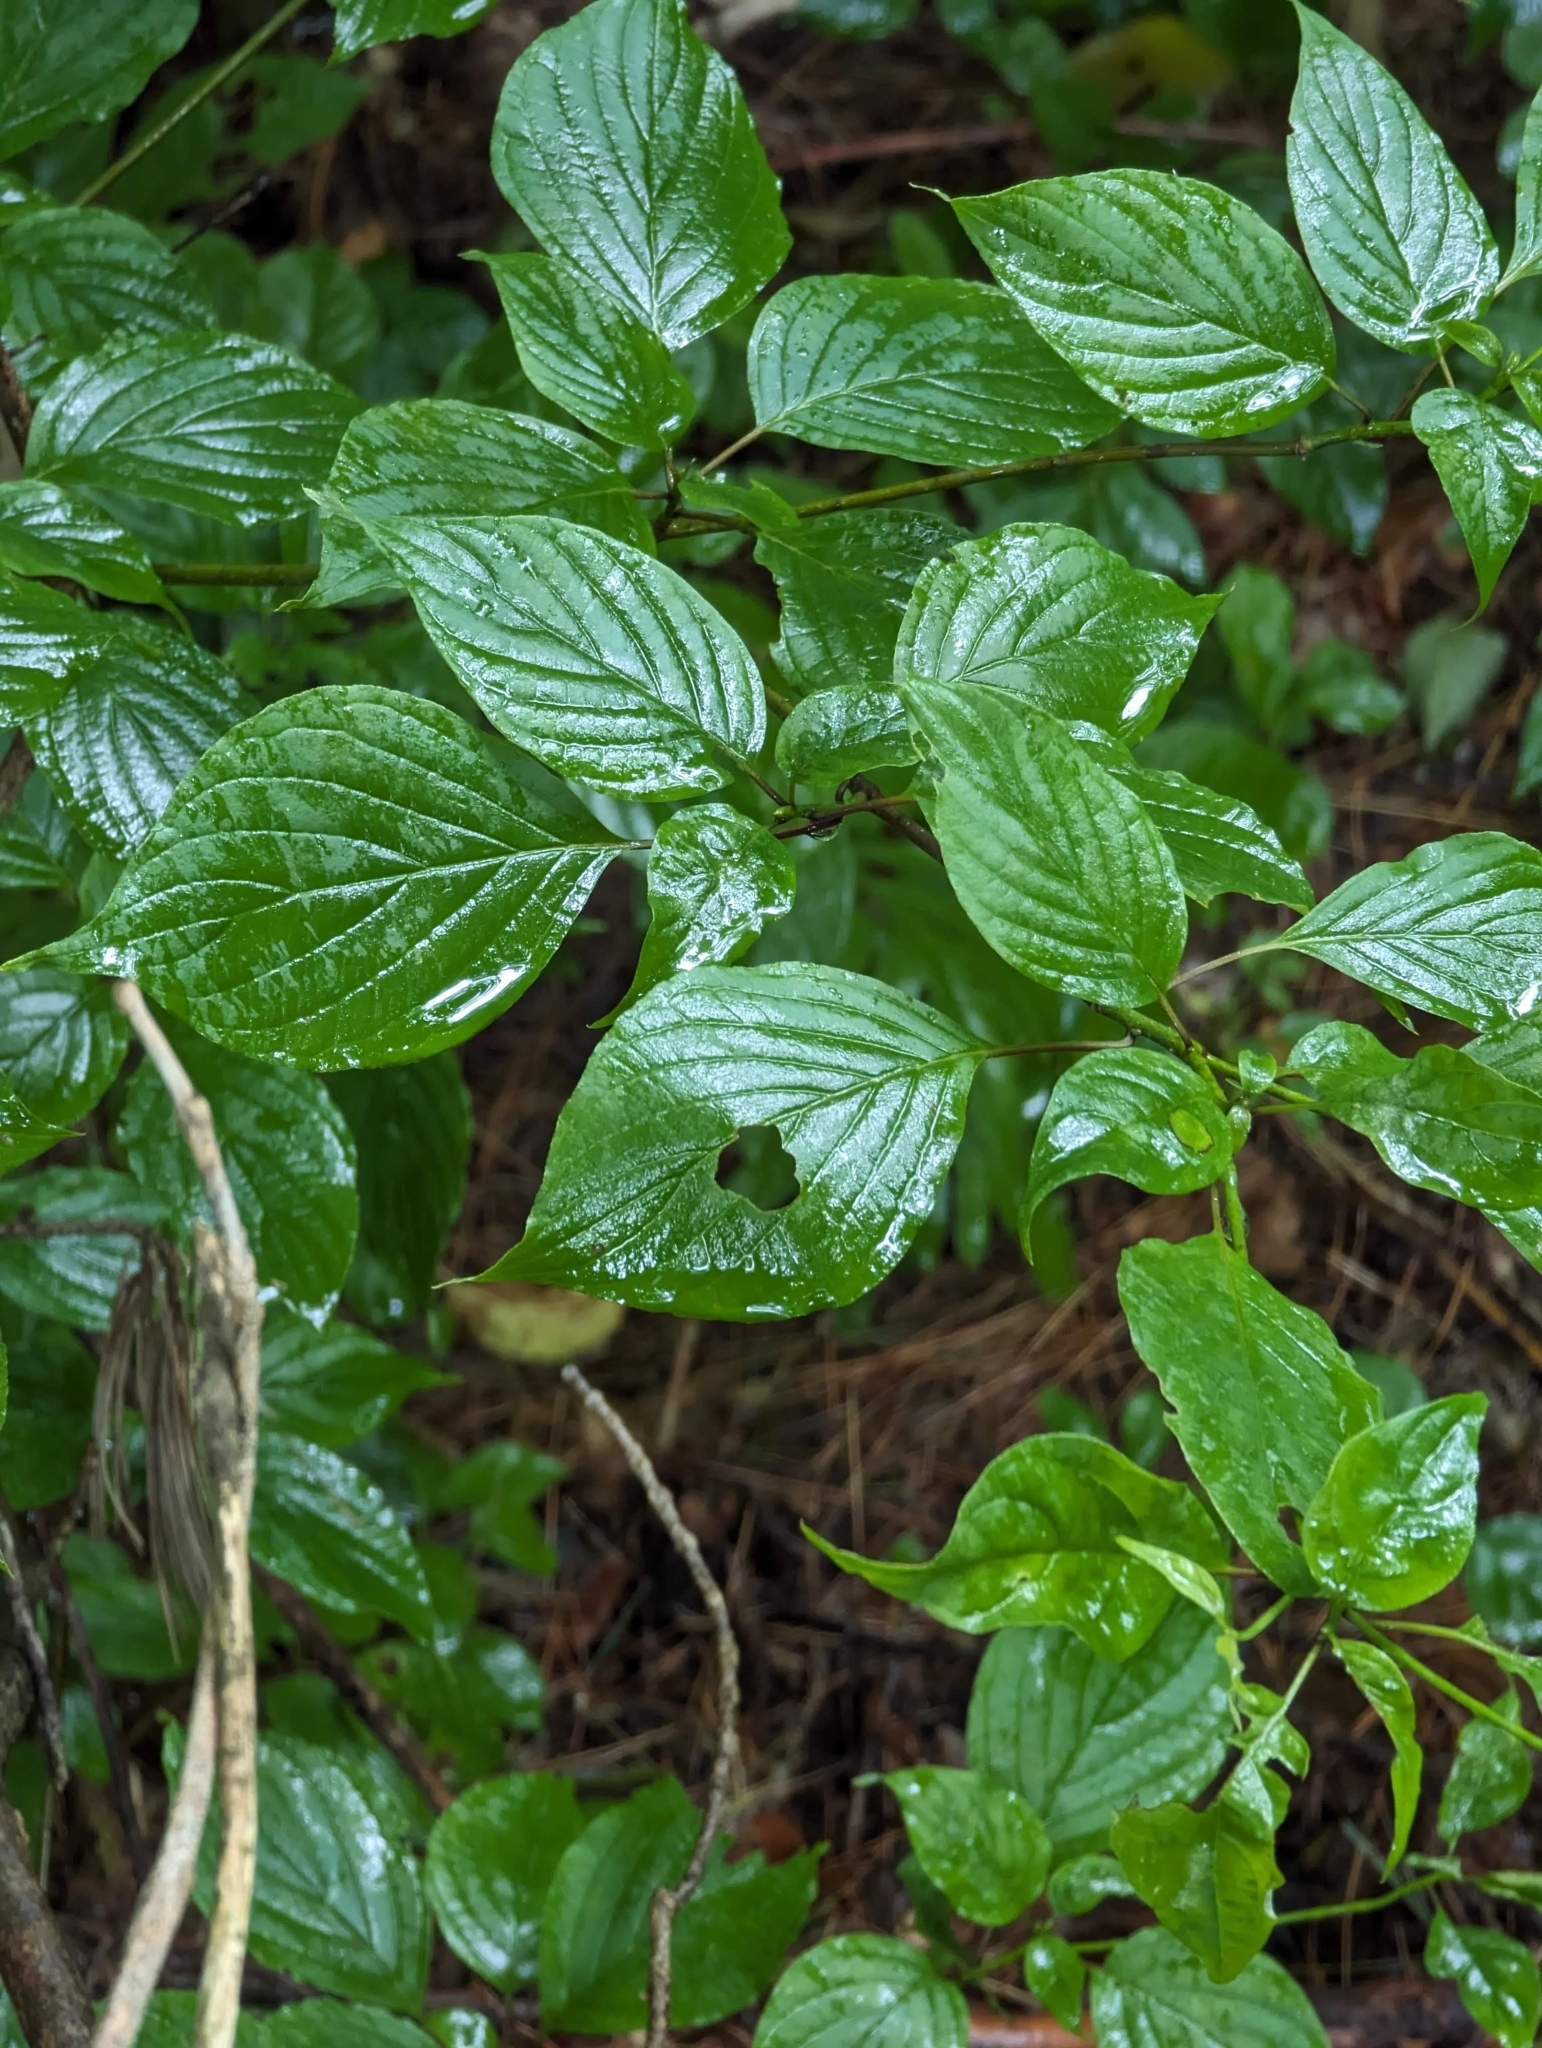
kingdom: Plantae
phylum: Tracheophyta
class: Magnoliopsida
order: Cornales
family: Cornaceae
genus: Cornus
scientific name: Cornus alternifolia
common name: Pagoda dogwood
